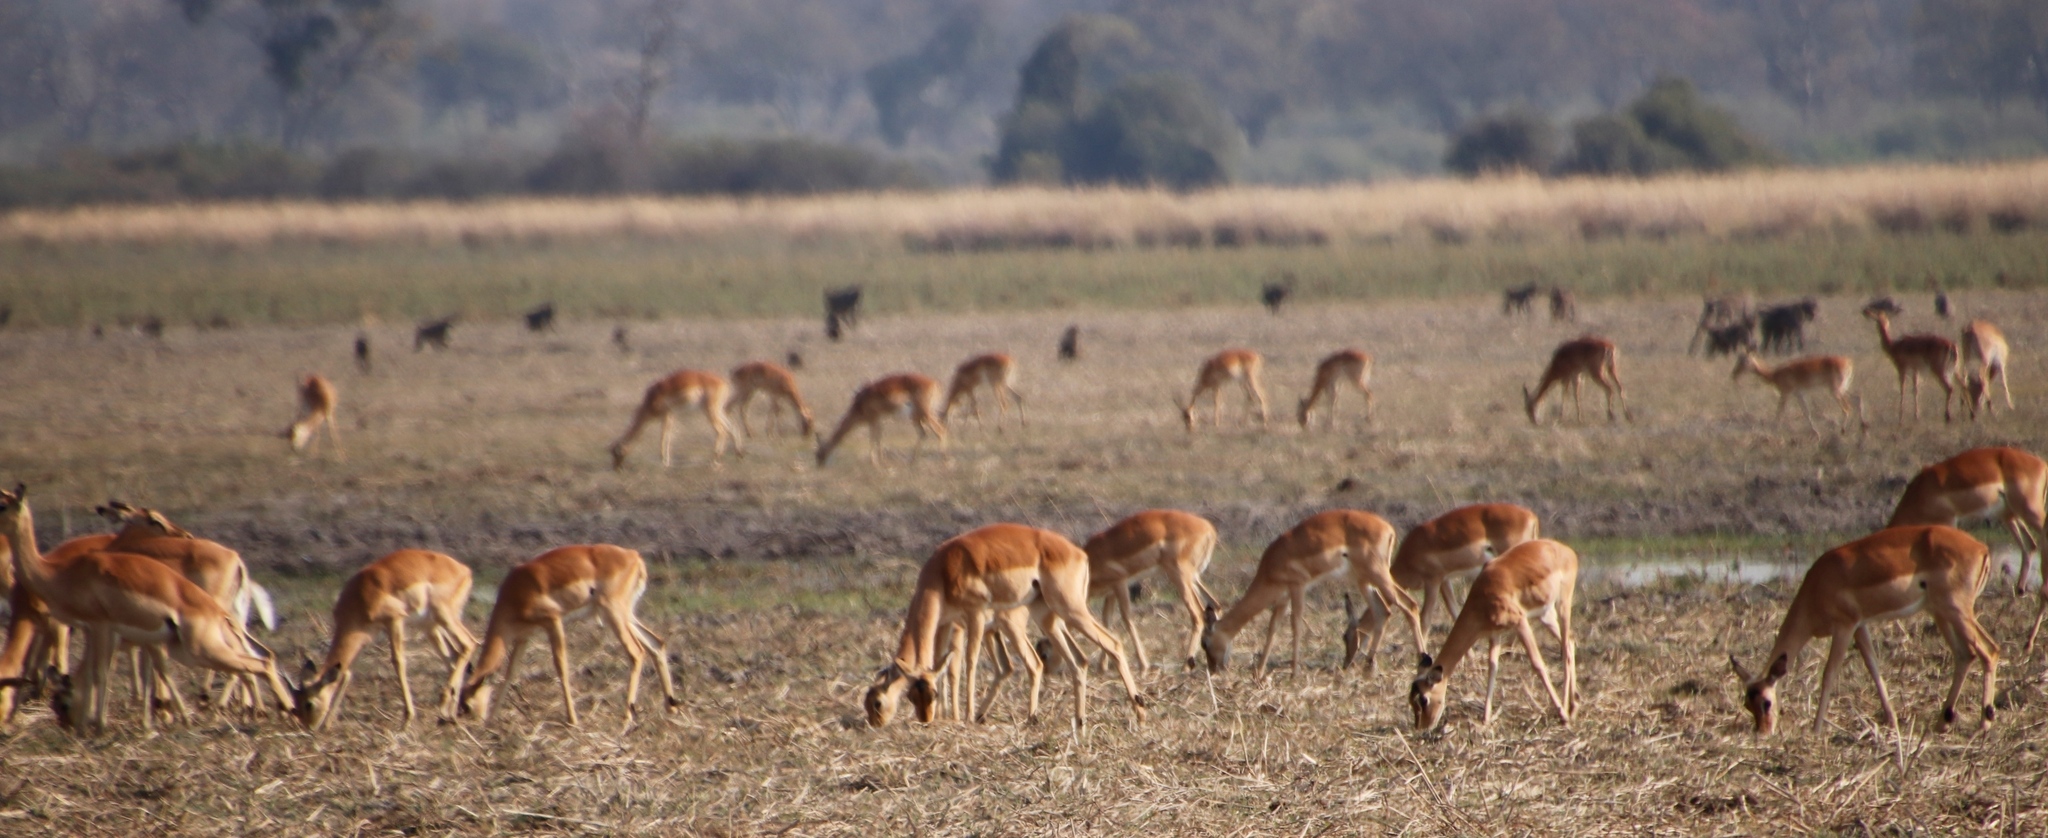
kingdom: Animalia
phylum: Chordata
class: Mammalia
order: Primates
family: Cercopithecidae
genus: Papio
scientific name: Papio ursinus
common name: Chacma baboon
